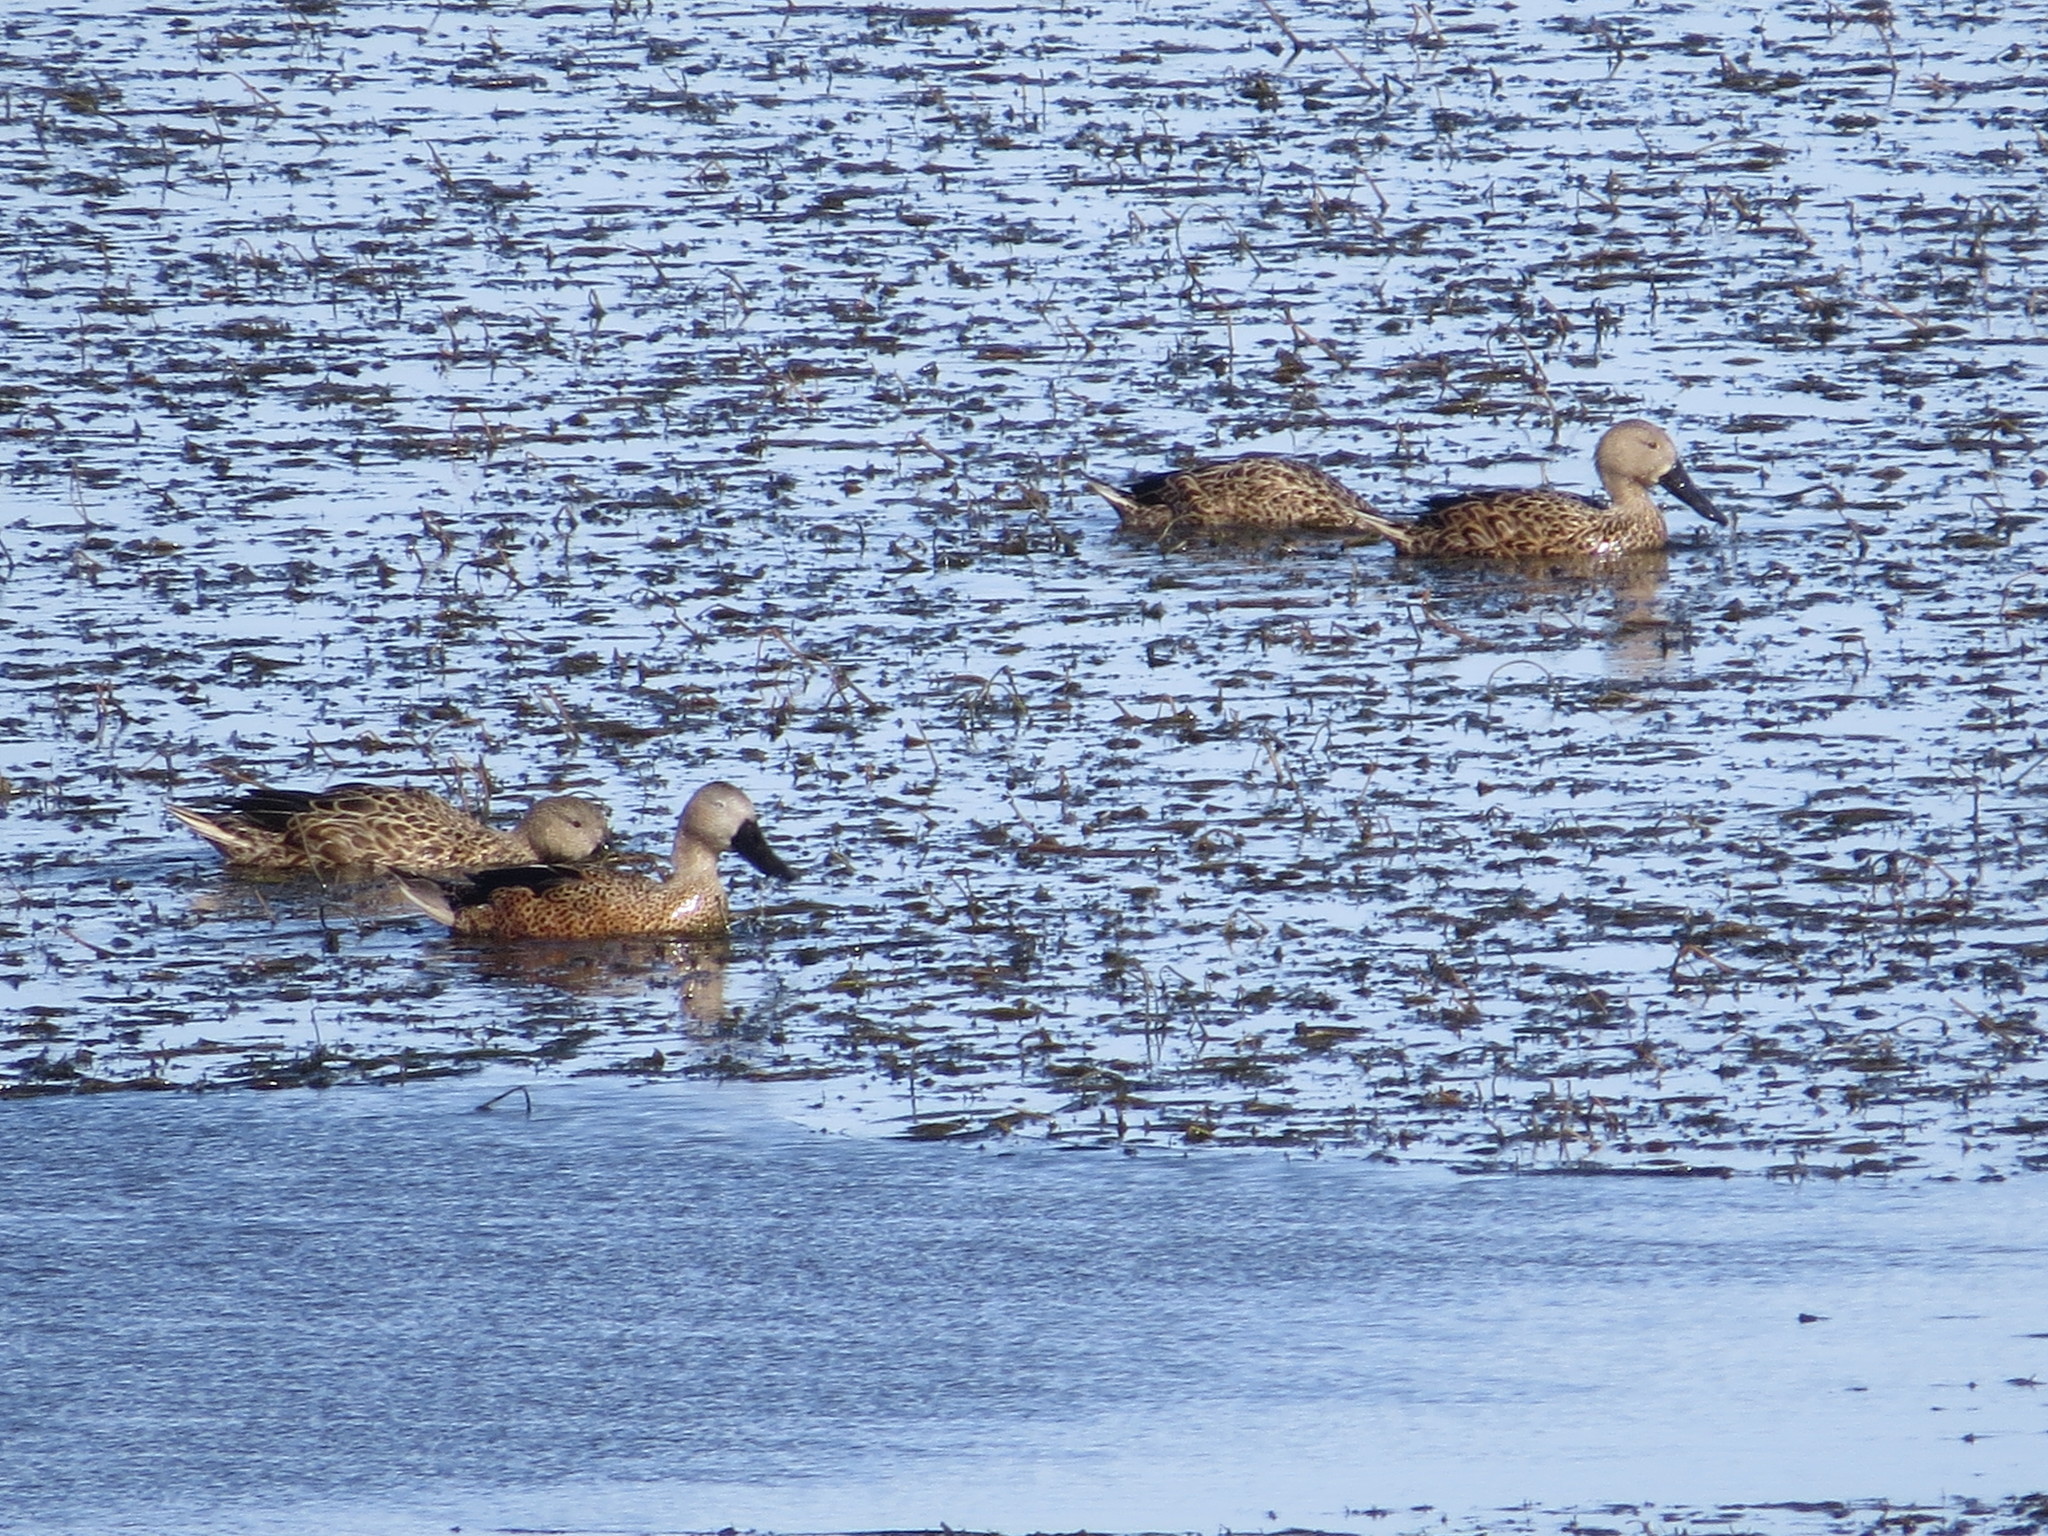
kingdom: Animalia
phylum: Chordata
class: Aves
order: Anseriformes
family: Anatidae
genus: Spatula
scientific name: Spatula platalea
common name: Red shoveler
